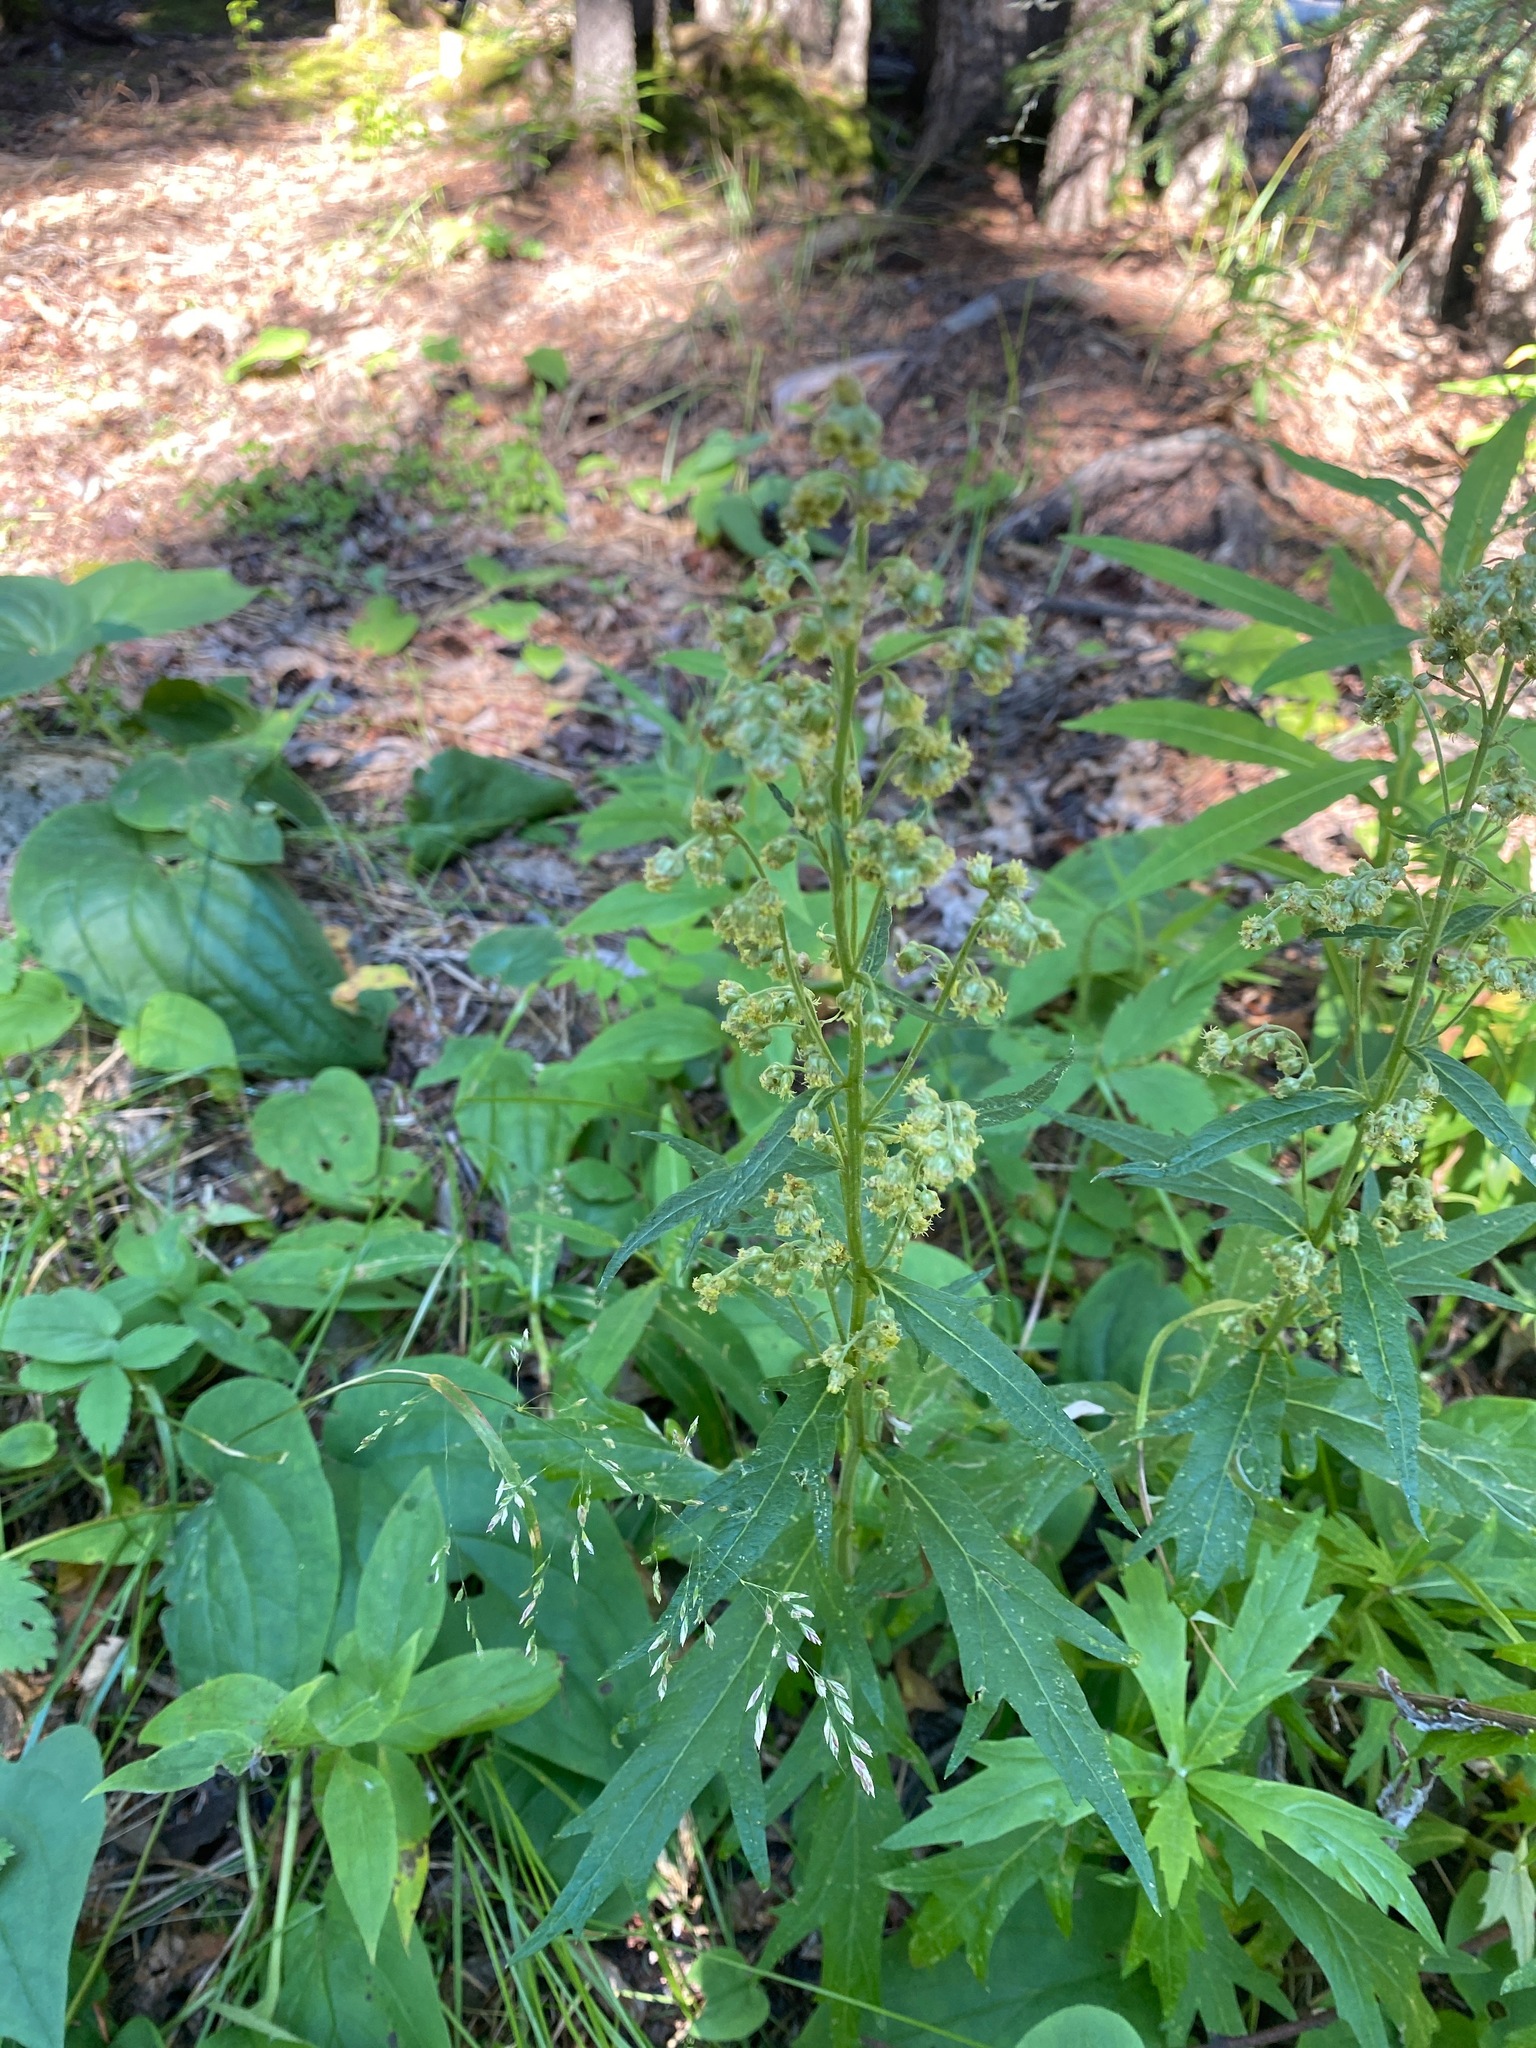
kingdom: Plantae
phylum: Tracheophyta
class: Magnoliopsida
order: Asterales
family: Asteraceae
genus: Artemisia
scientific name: Artemisia tilesii
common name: Aleutian mugwort
